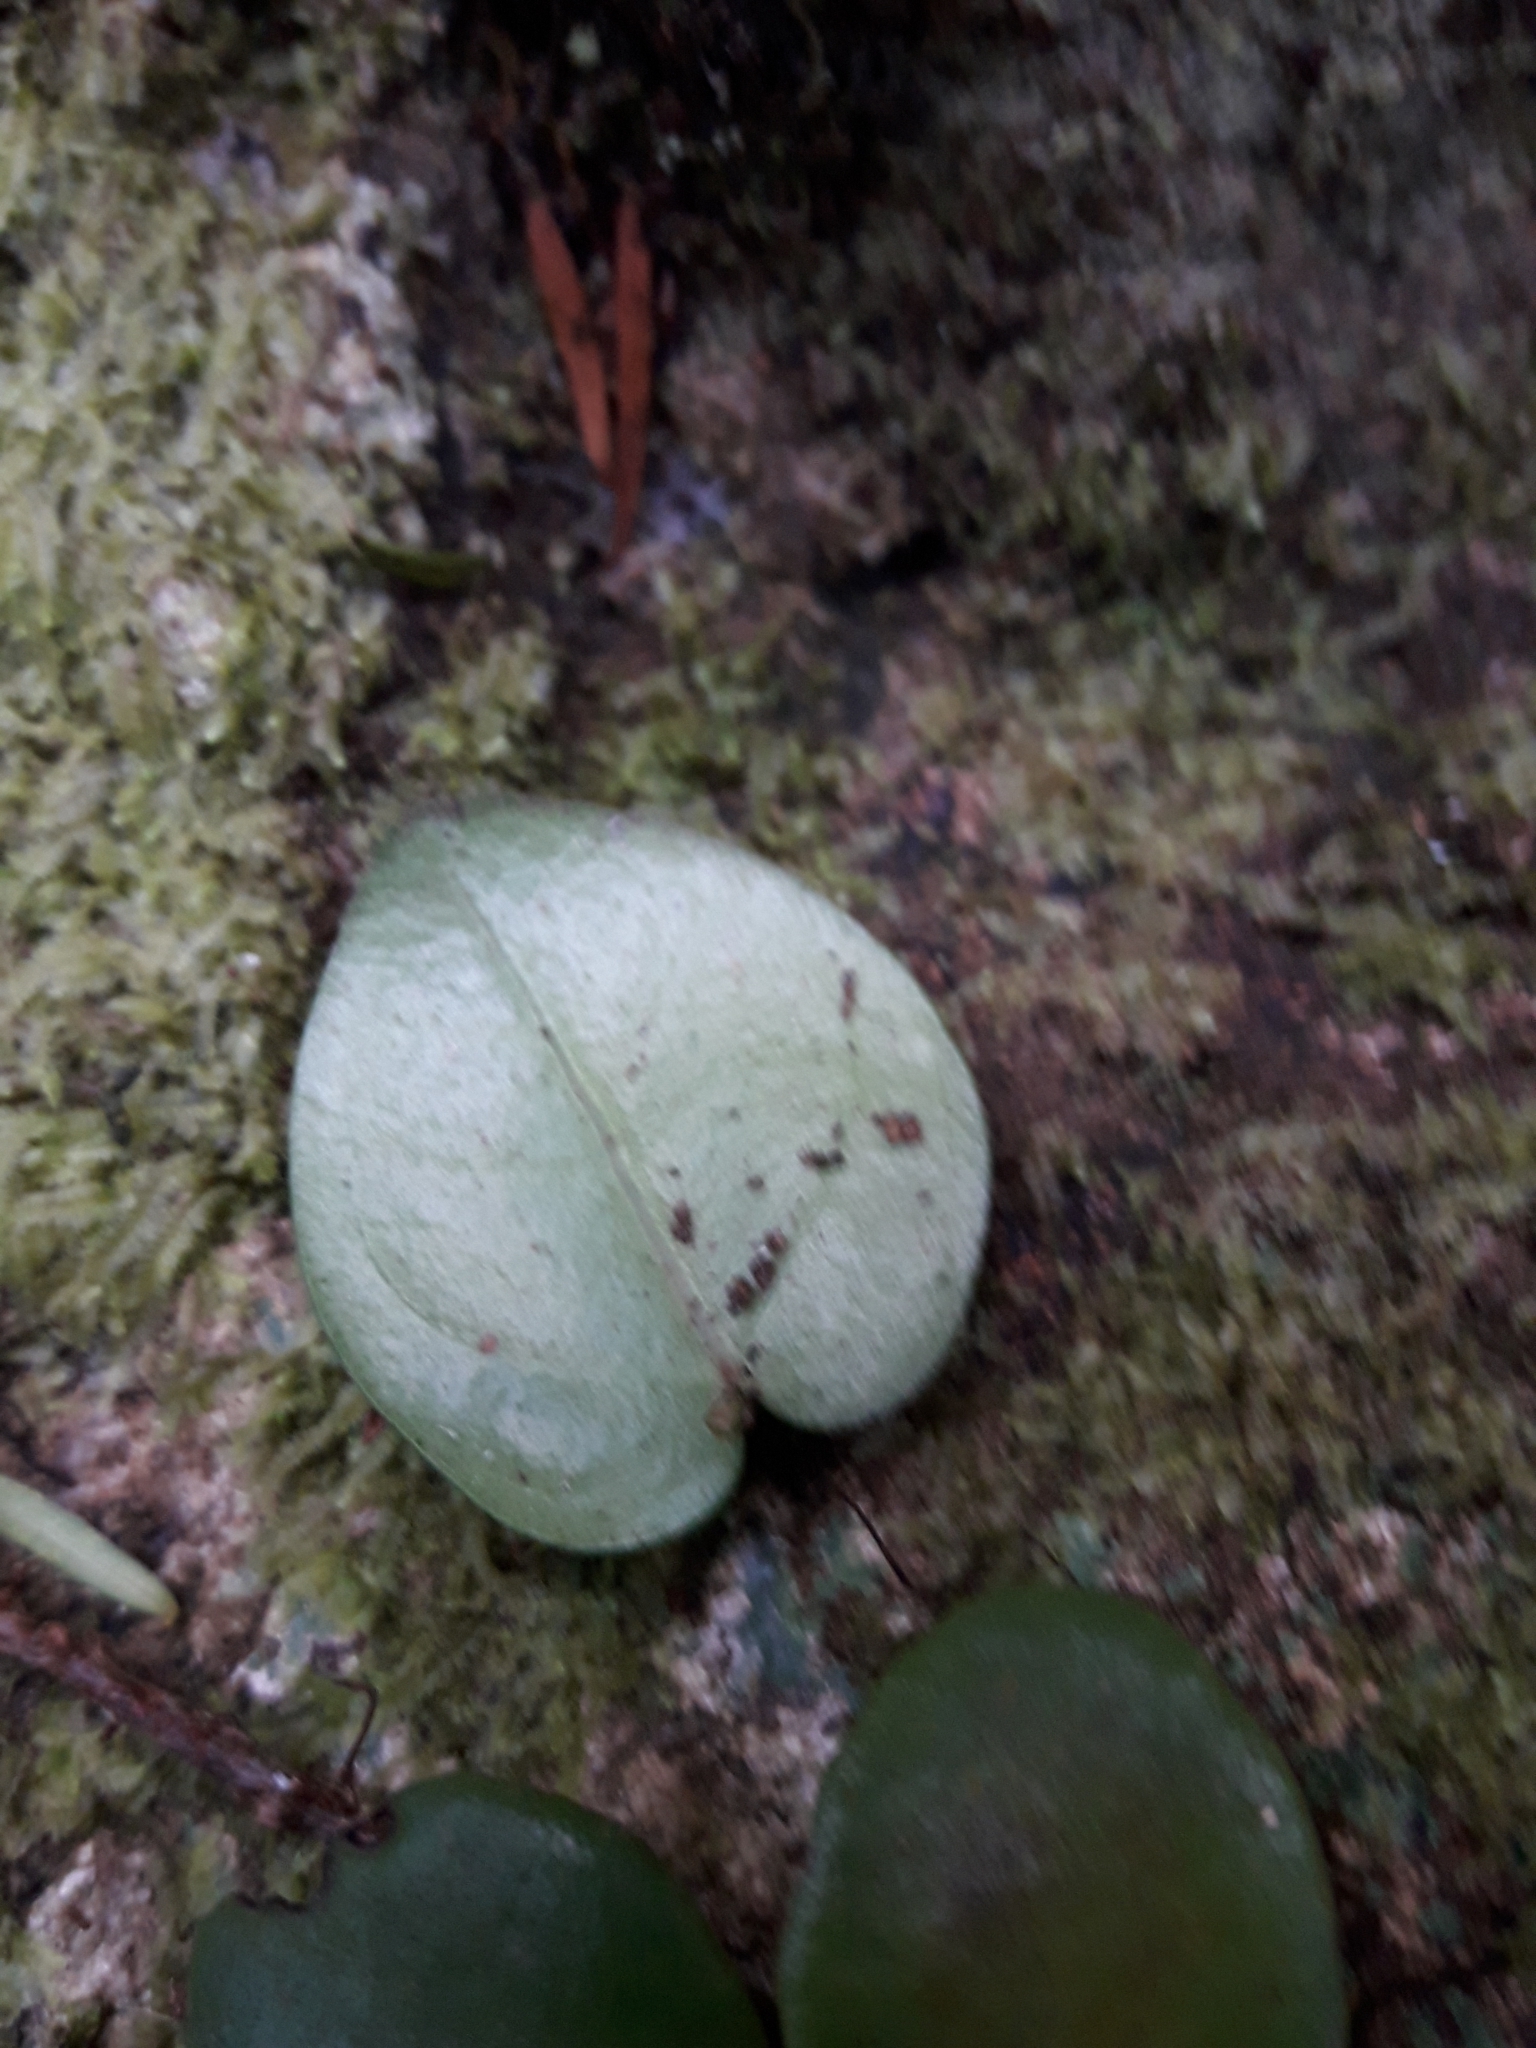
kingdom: Plantae
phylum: Tracheophyta
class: Magnoliopsida
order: Myrtales
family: Myrtaceae
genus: Metrosideros
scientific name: Metrosideros carminea
